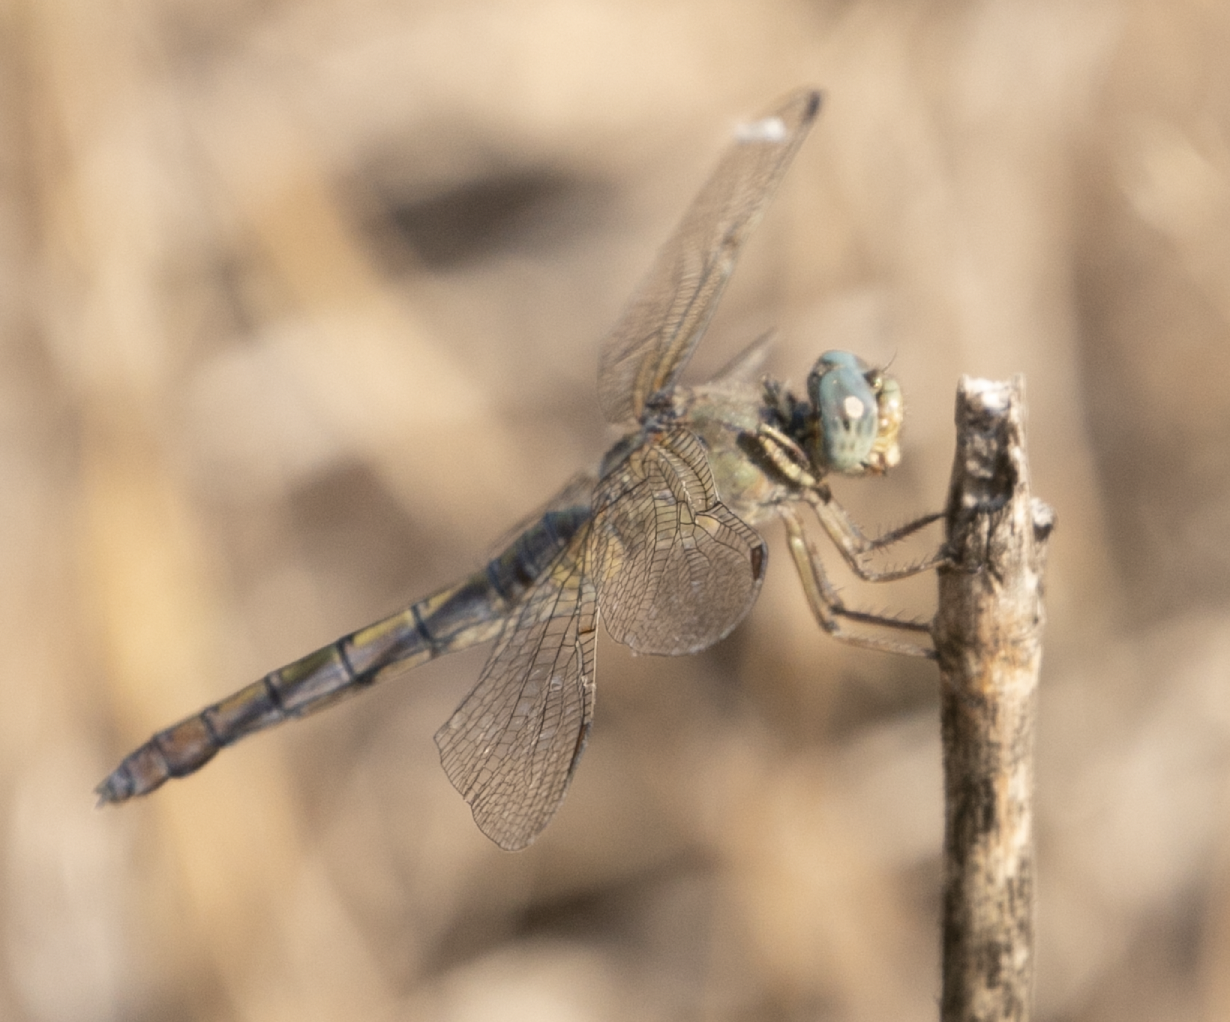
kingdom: Animalia
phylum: Arthropoda
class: Insecta
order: Odonata
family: Libellulidae
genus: Orthetrum
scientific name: Orthetrum coerulescens
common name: Keeled skimmer
